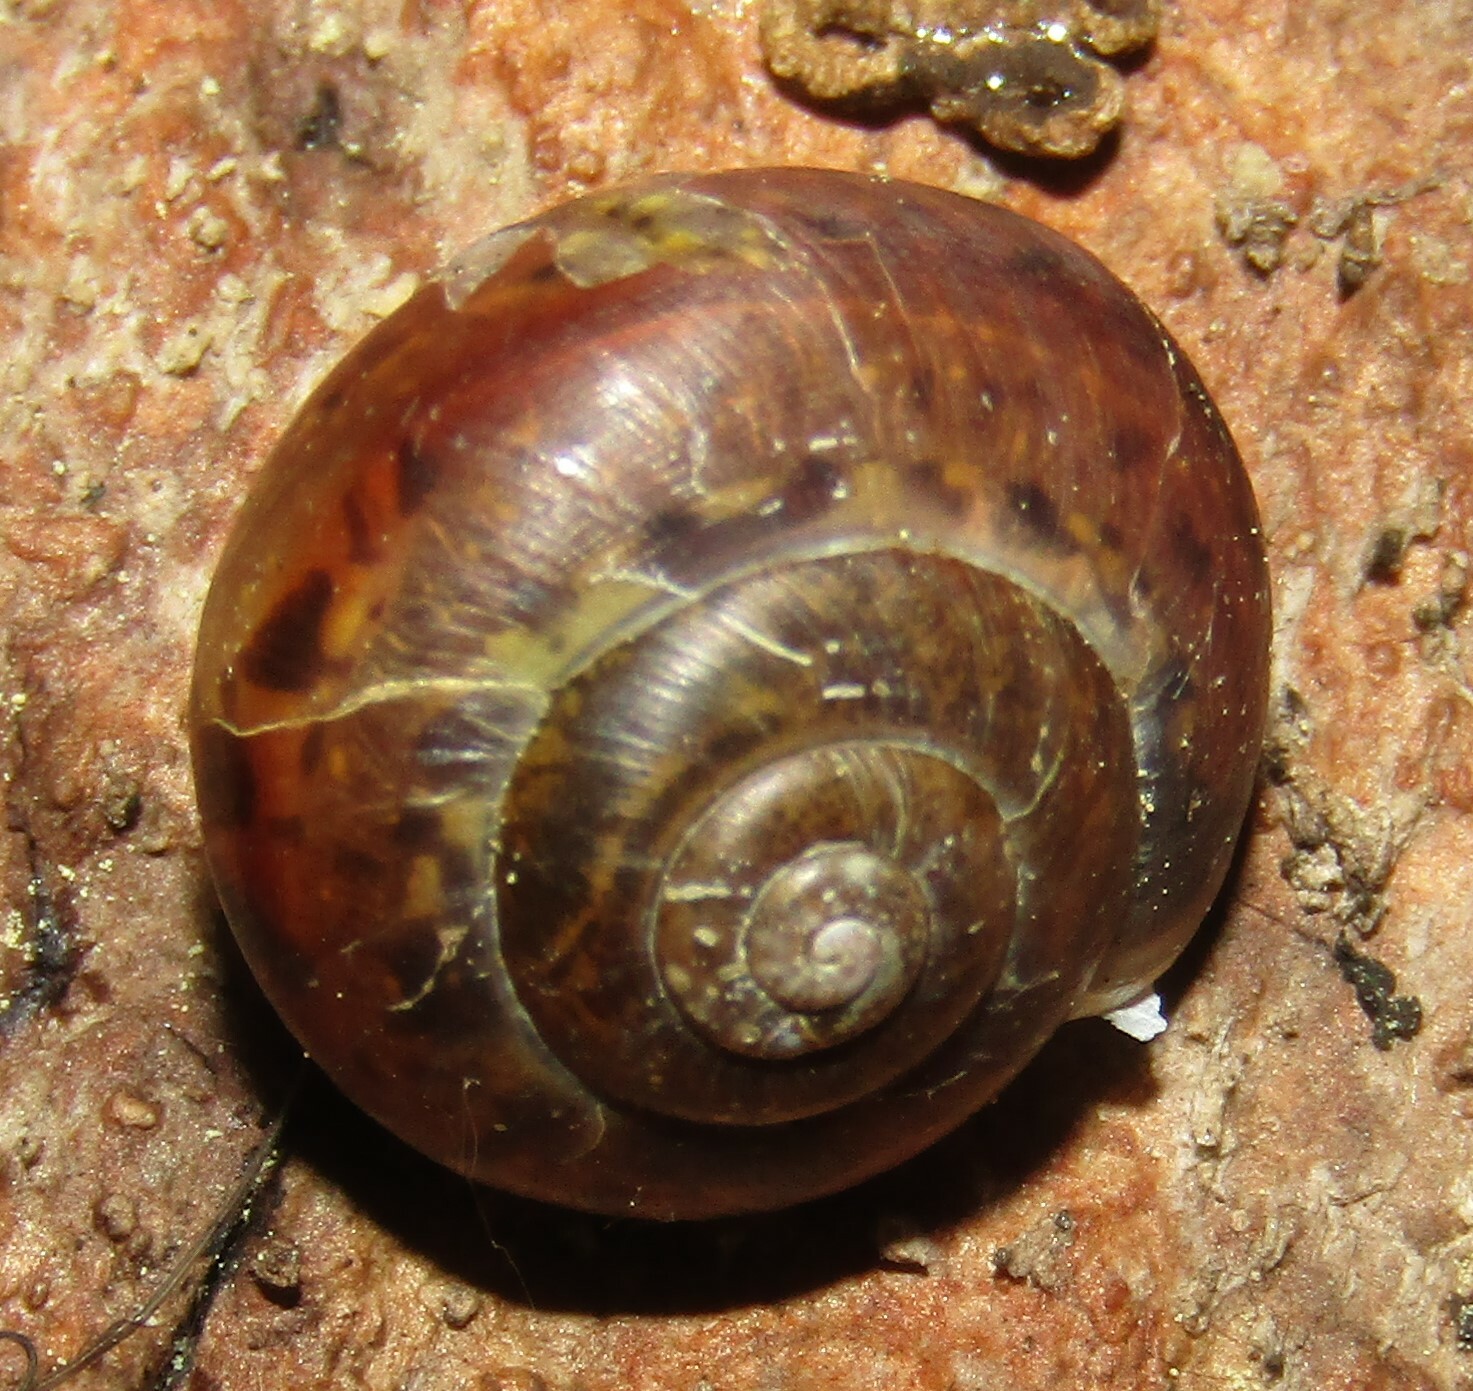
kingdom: Animalia
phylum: Mollusca
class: Gastropoda
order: Stylommatophora
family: Camaenidae
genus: Fruticicola
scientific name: Fruticicola fruticum
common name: Bush snail
